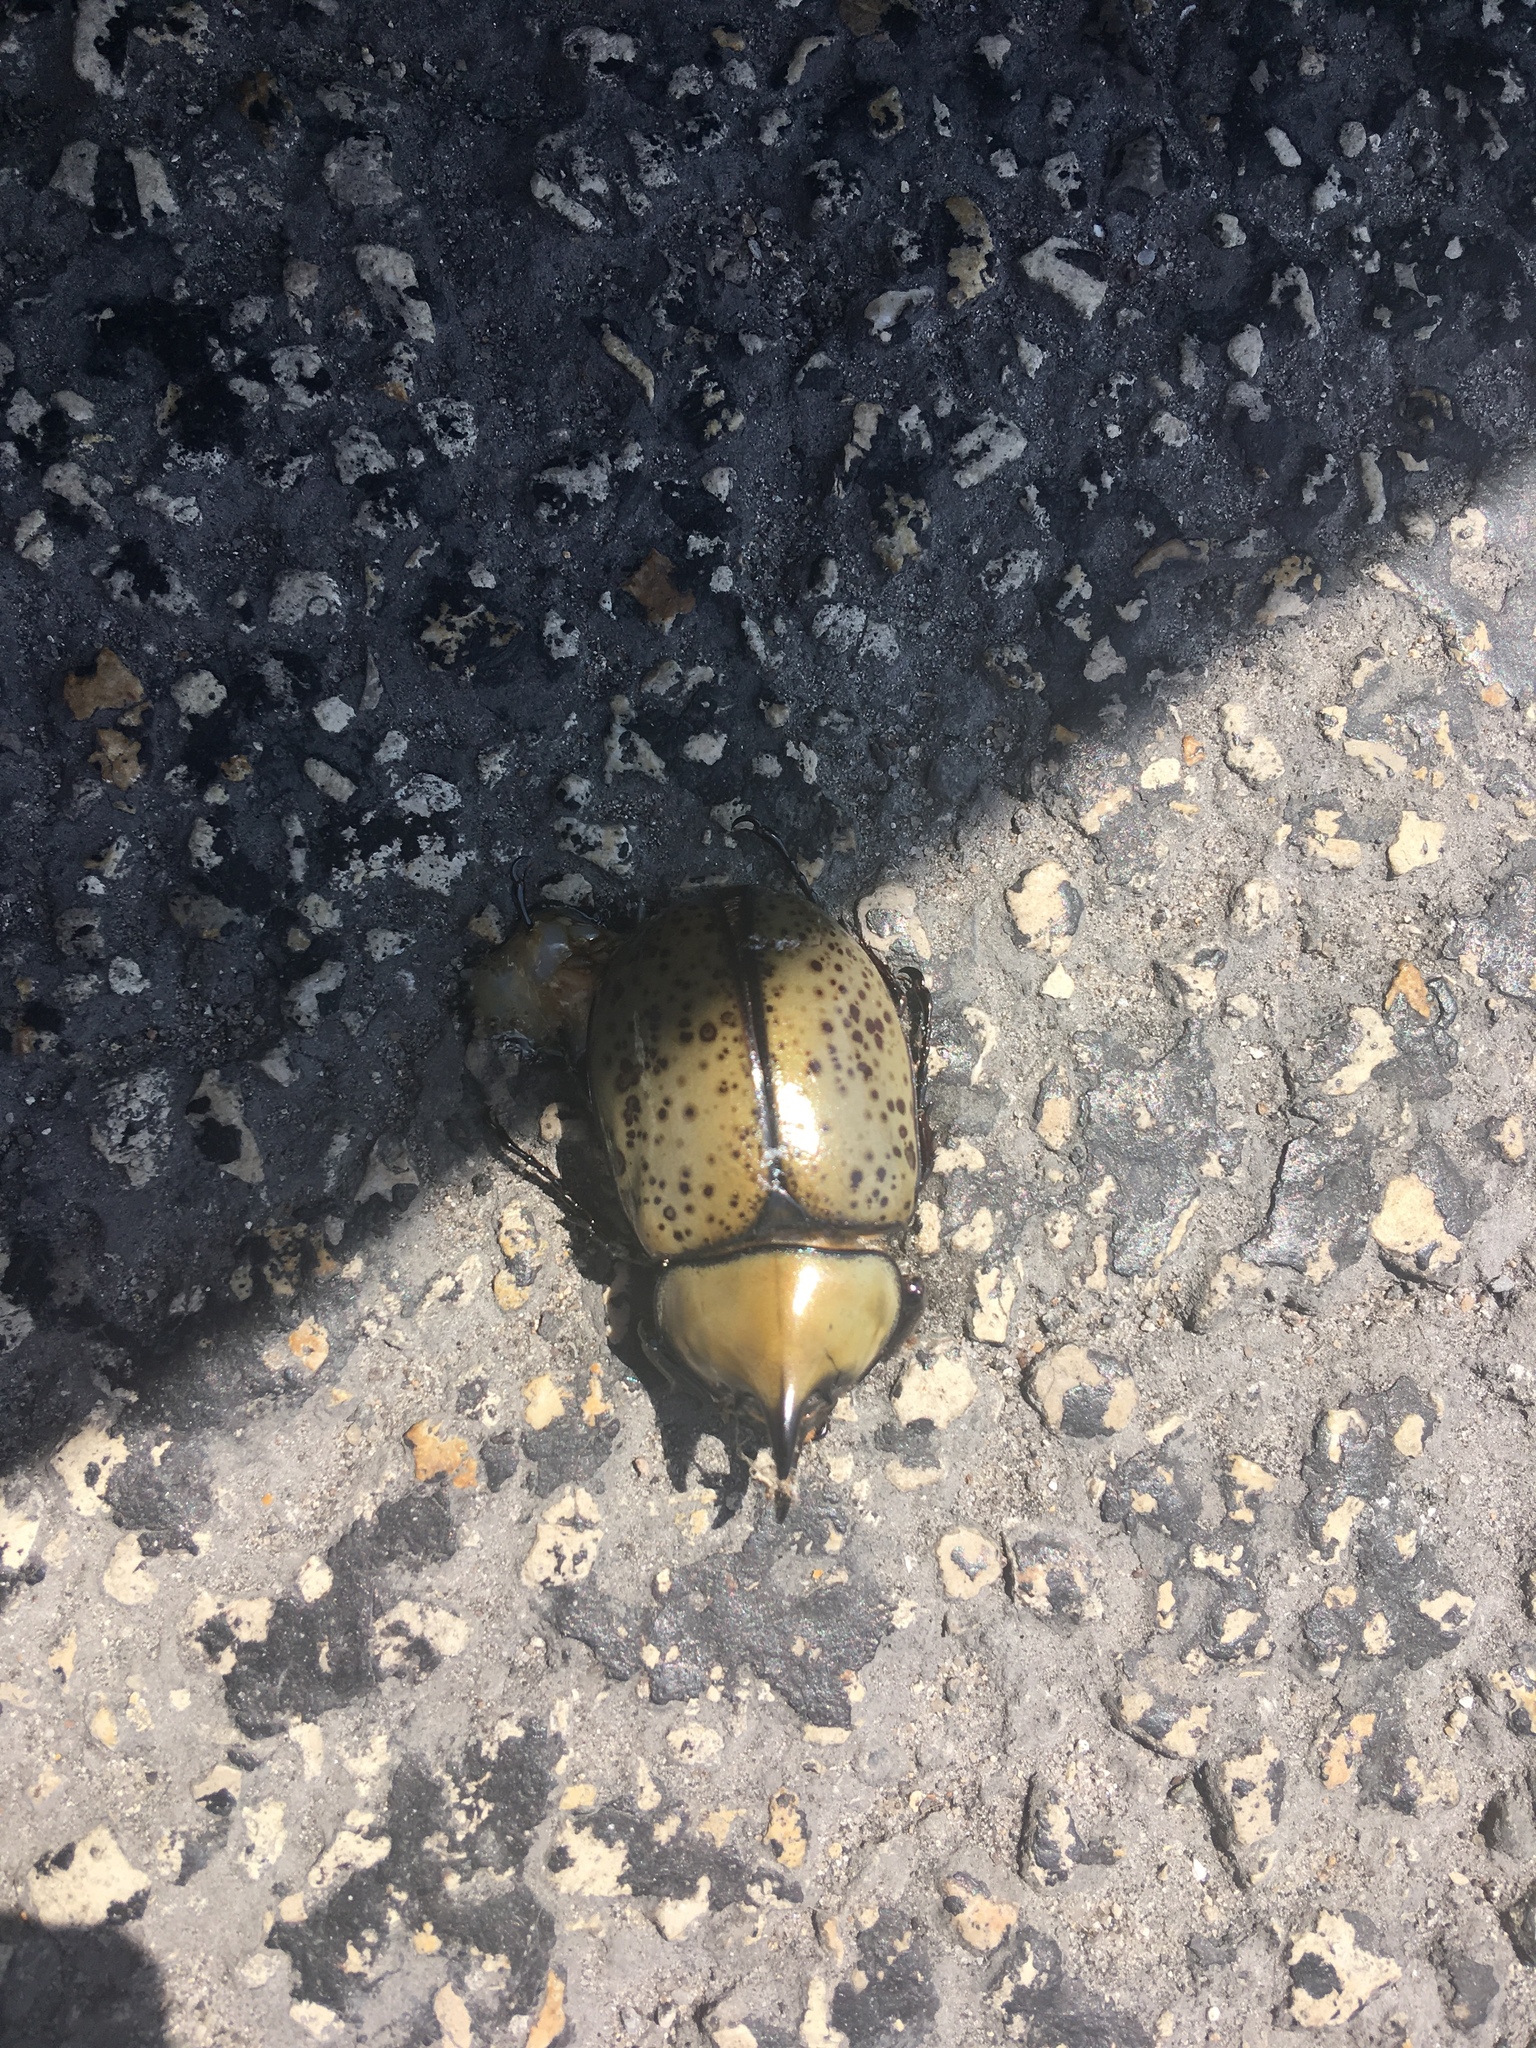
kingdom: Animalia
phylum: Arthropoda
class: Insecta
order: Coleoptera
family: Scarabaeidae
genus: Dynastes
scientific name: Dynastes tityus
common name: Eastern hercules beetle
